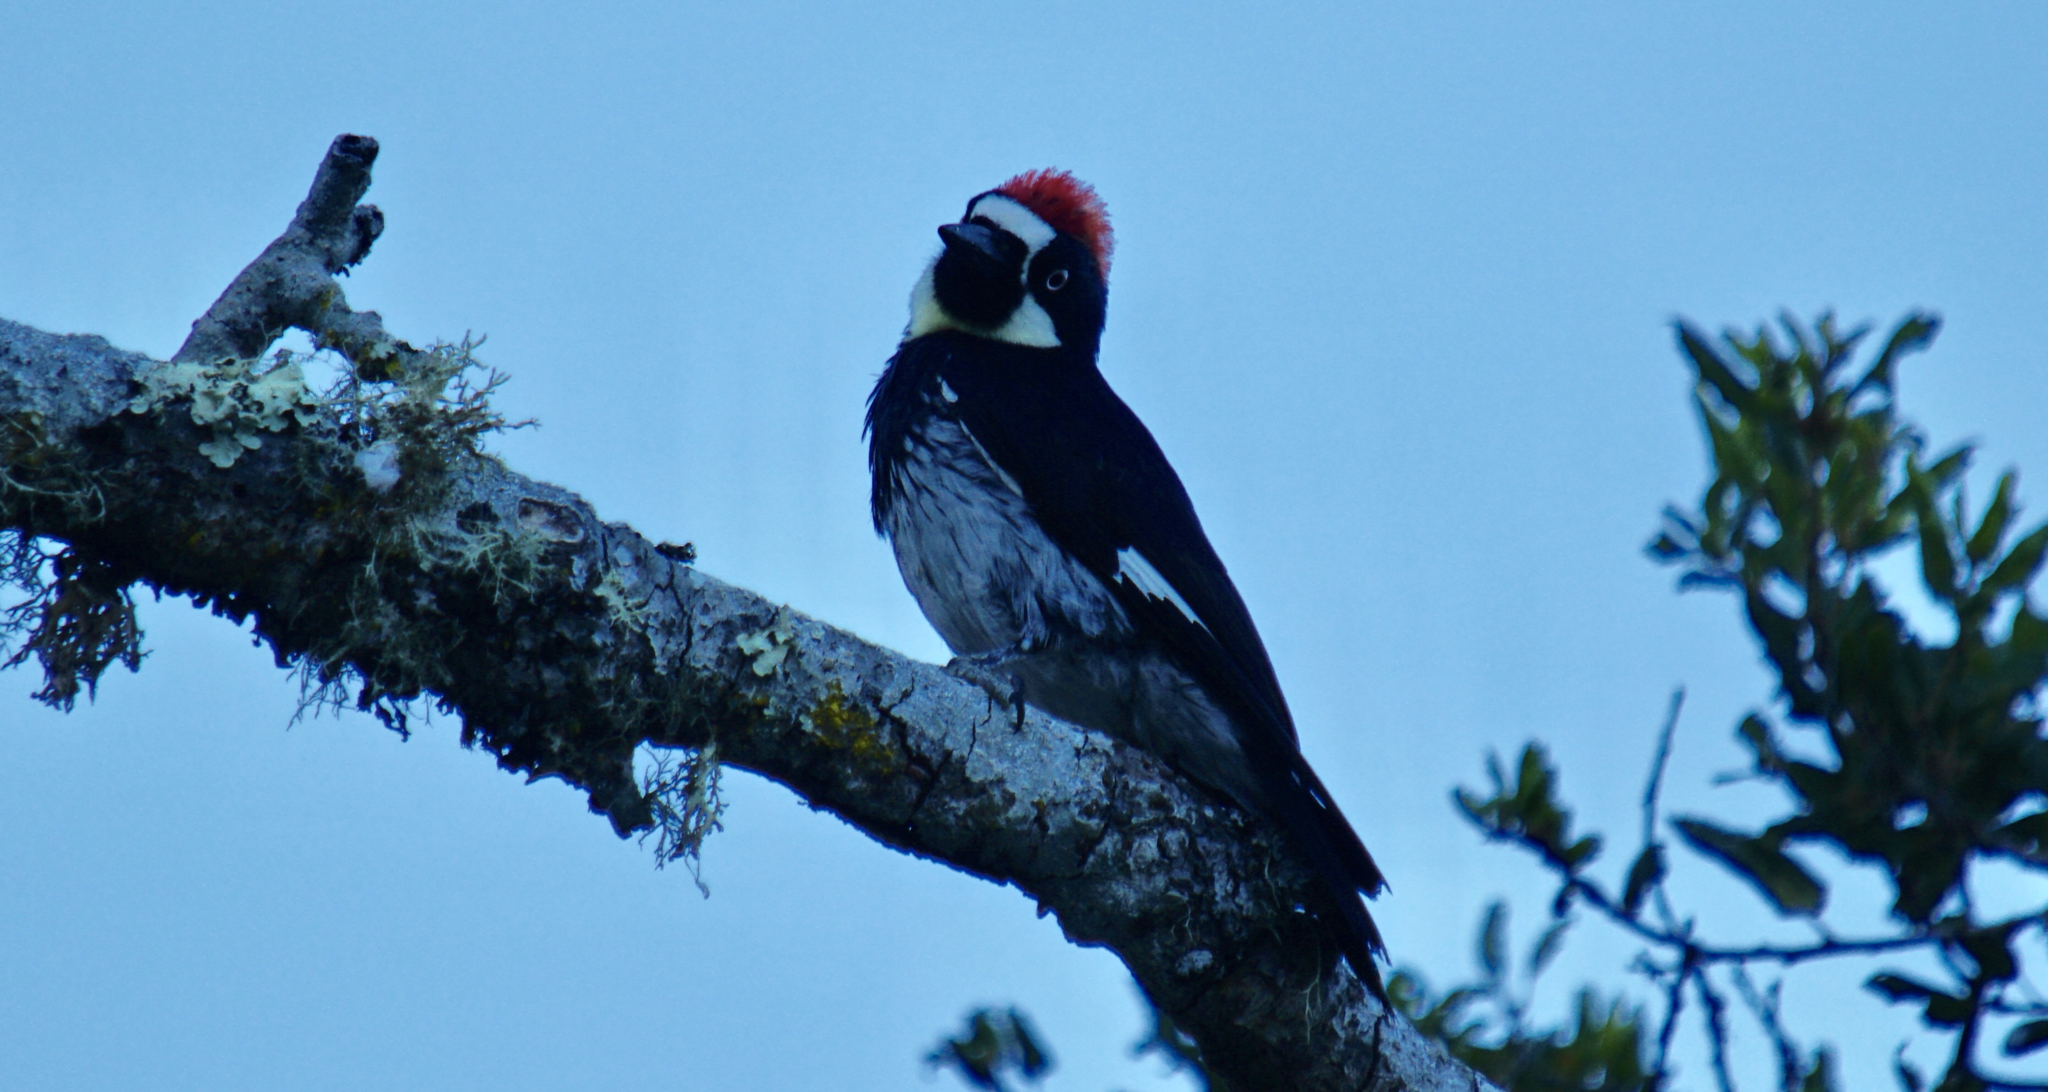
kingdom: Animalia
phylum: Chordata
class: Aves
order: Piciformes
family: Picidae
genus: Melanerpes
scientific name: Melanerpes formicivorus
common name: Acorn woodpecker
